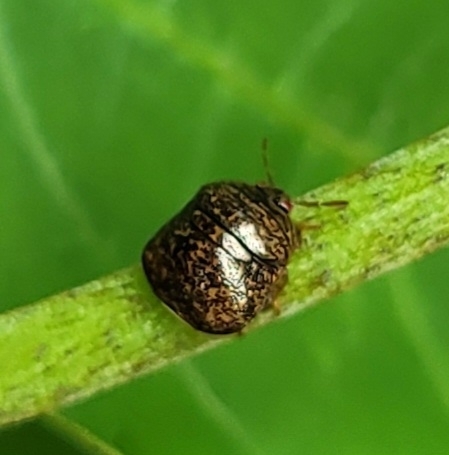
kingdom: Animalia
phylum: Arthropoda
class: Insecta
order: Hemiptera
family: Plataspidae
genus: Megacopta
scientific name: Megacopta cribraria
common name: Bean plataspid
